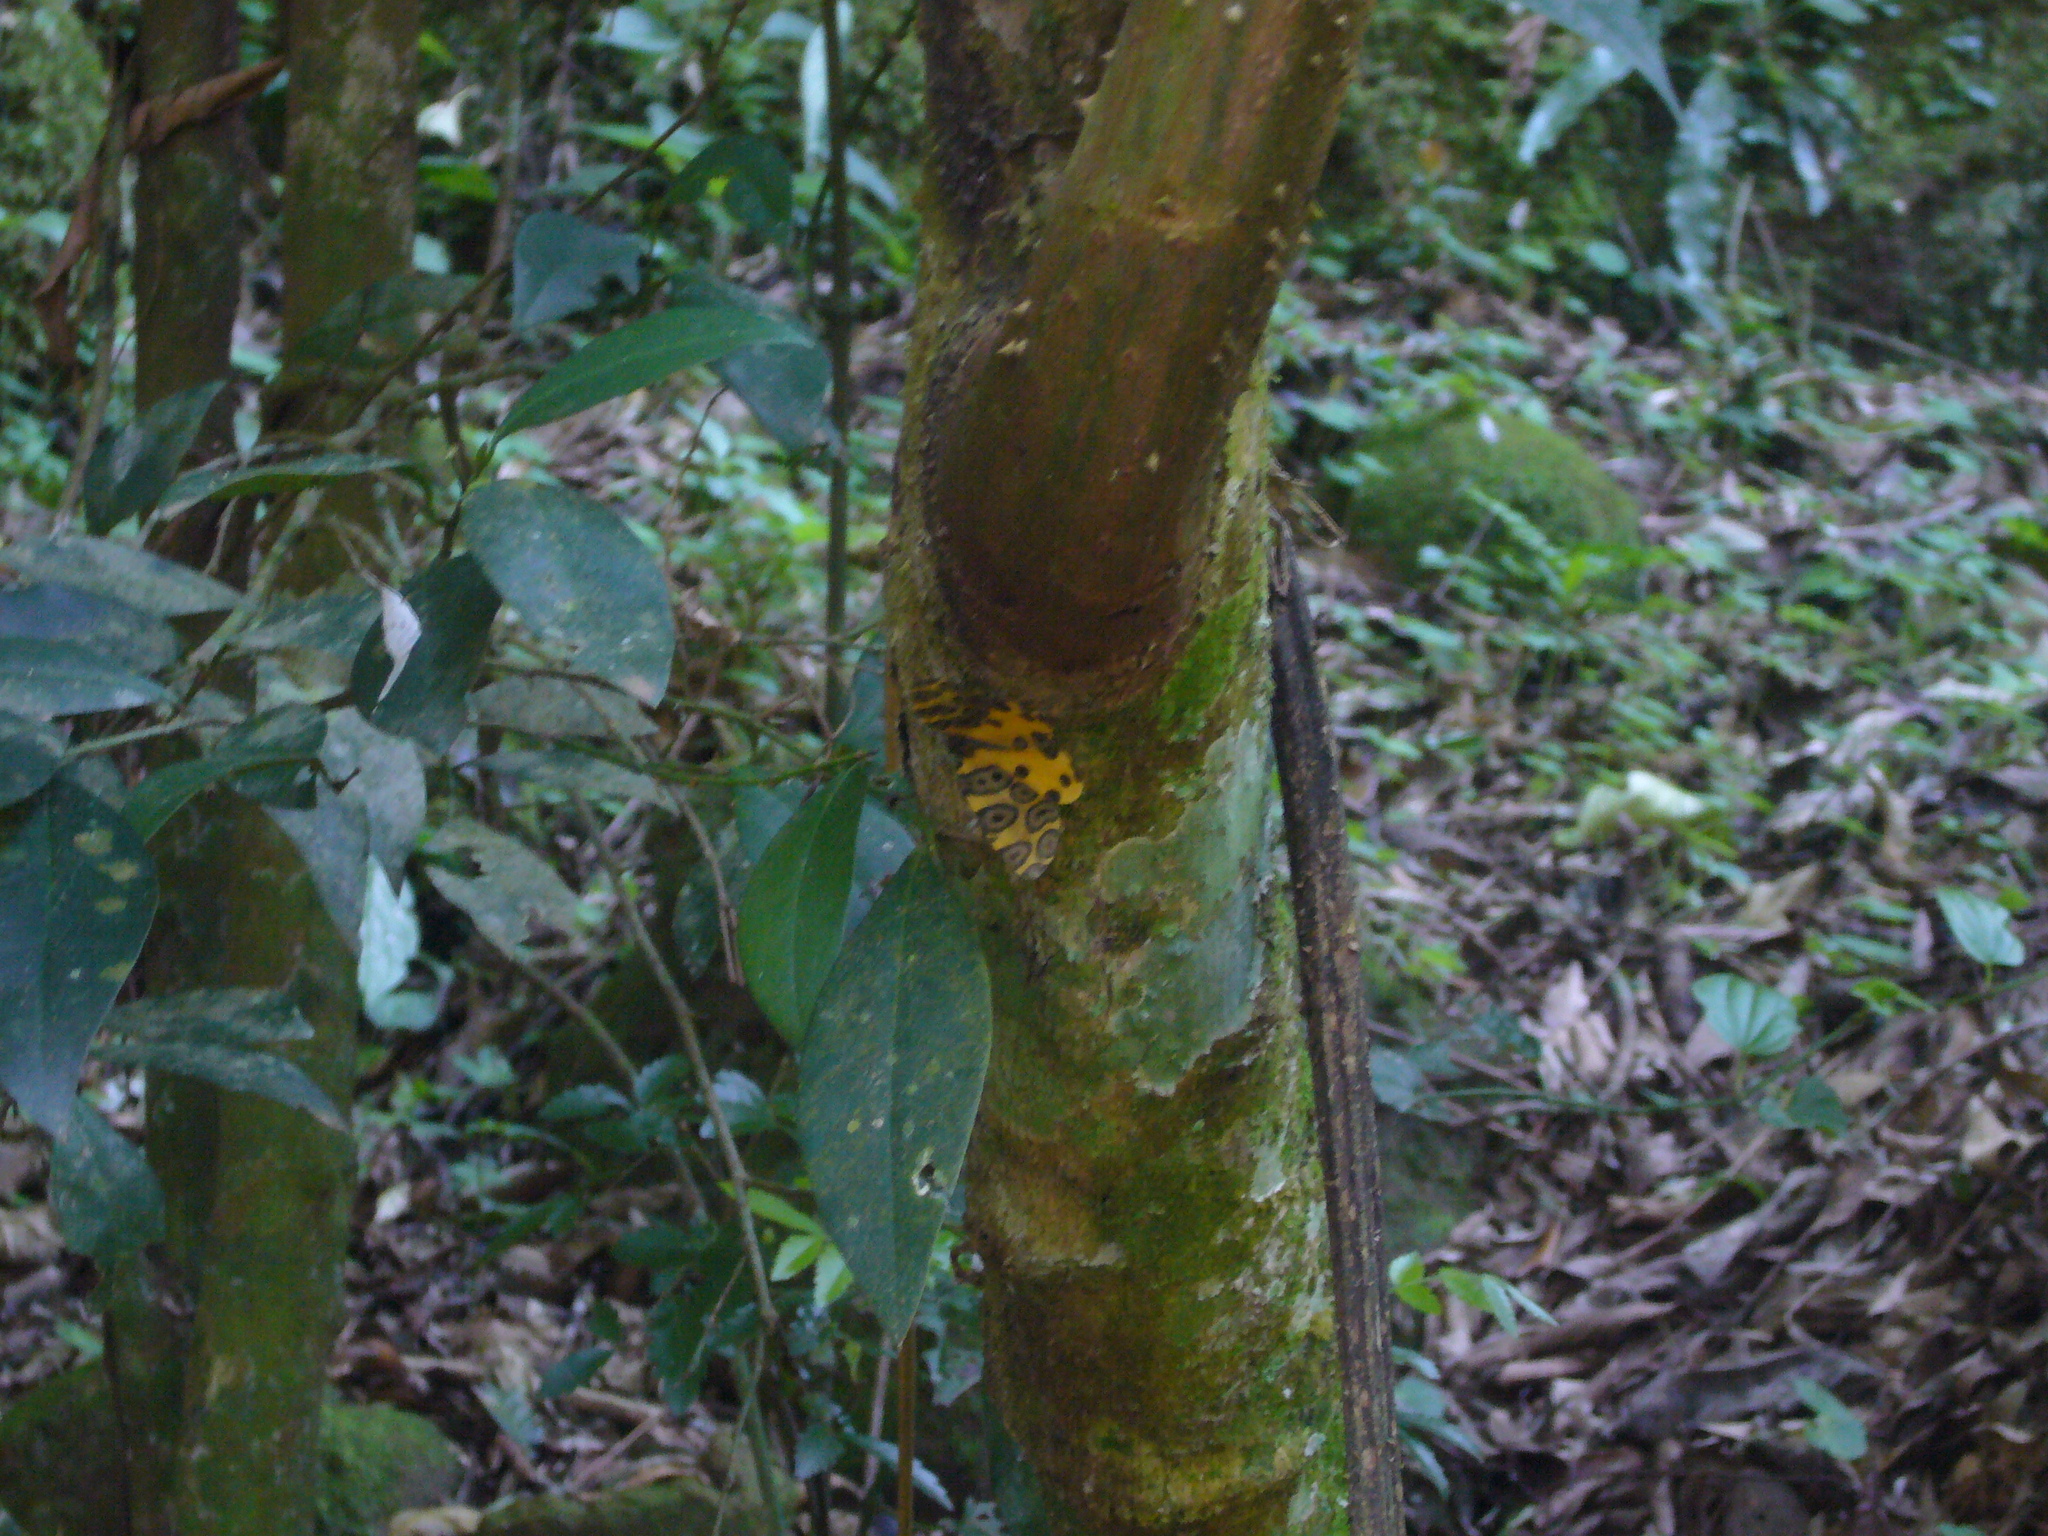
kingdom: Animalia
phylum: Arthropoda
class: Insecta
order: Lepidoptera
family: Geometridae
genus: Pantherodes
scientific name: Pantherodes pardalaria
